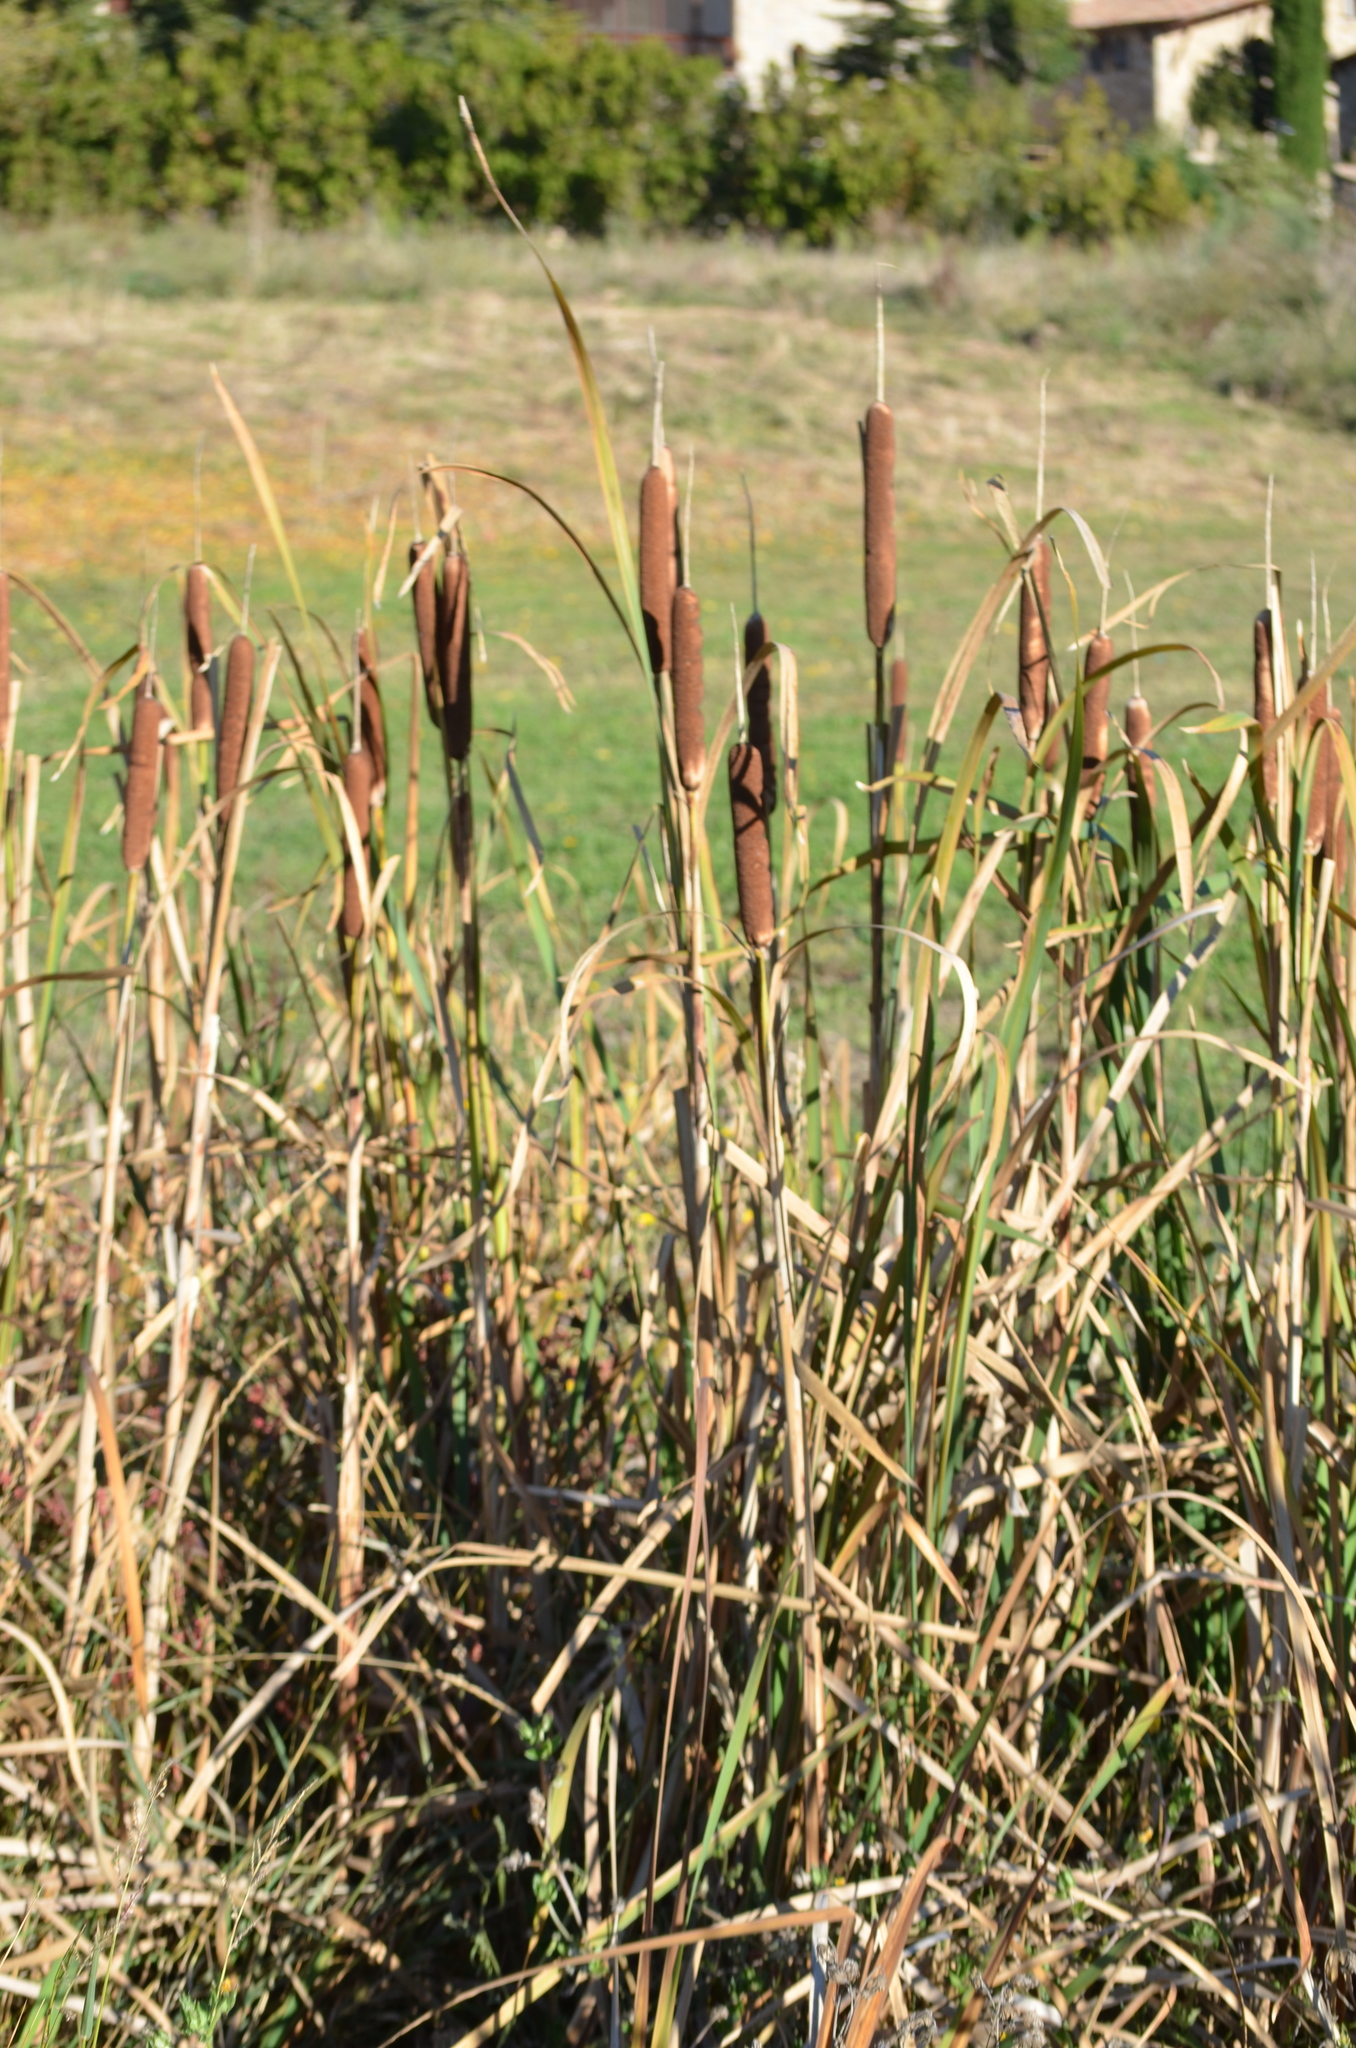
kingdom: Plantae
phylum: Tracheophyta
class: Liliopsida
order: Poales
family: Typhaceae
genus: Typha
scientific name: Typha latifolia
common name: Broadleaf cattail
